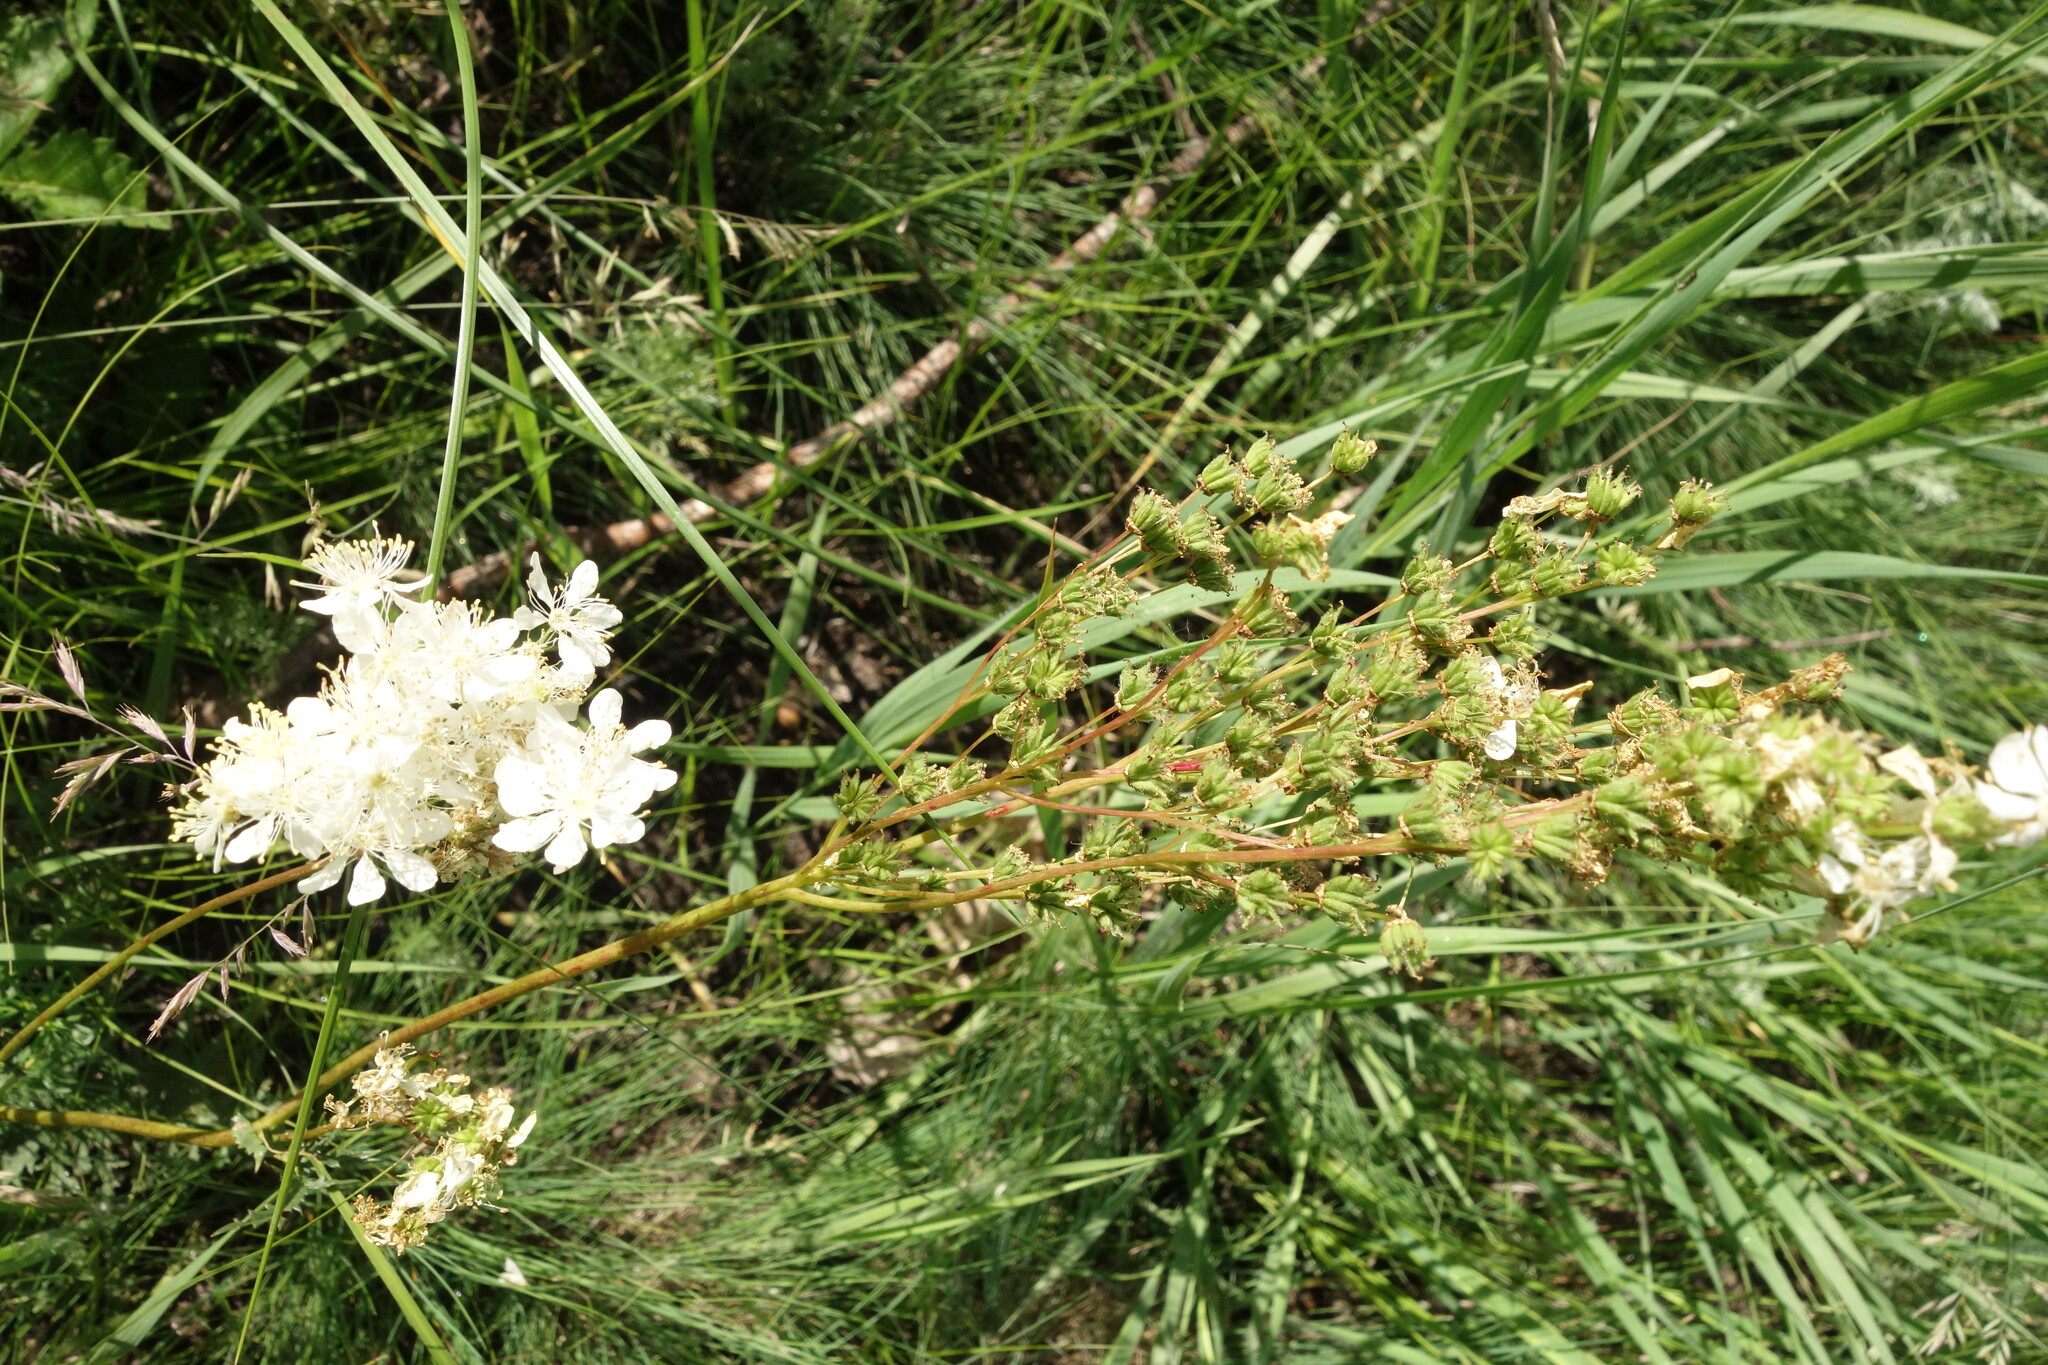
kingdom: Plantae
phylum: Tracheophyta
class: Magnoliopsida
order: Rosales
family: Rosaceae
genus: Filipendula
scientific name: Filipendula vulgaris
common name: Dropwort
